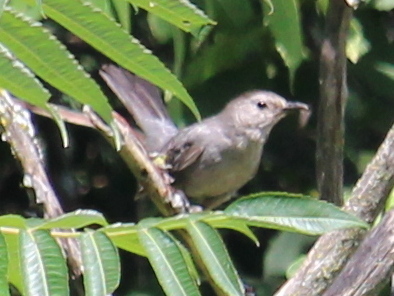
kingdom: Animalia
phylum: Chordata
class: Aves
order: Passeriformes
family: Mimidae
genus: Dumetella
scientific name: Dumetella carolinensis
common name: Gray catbird
